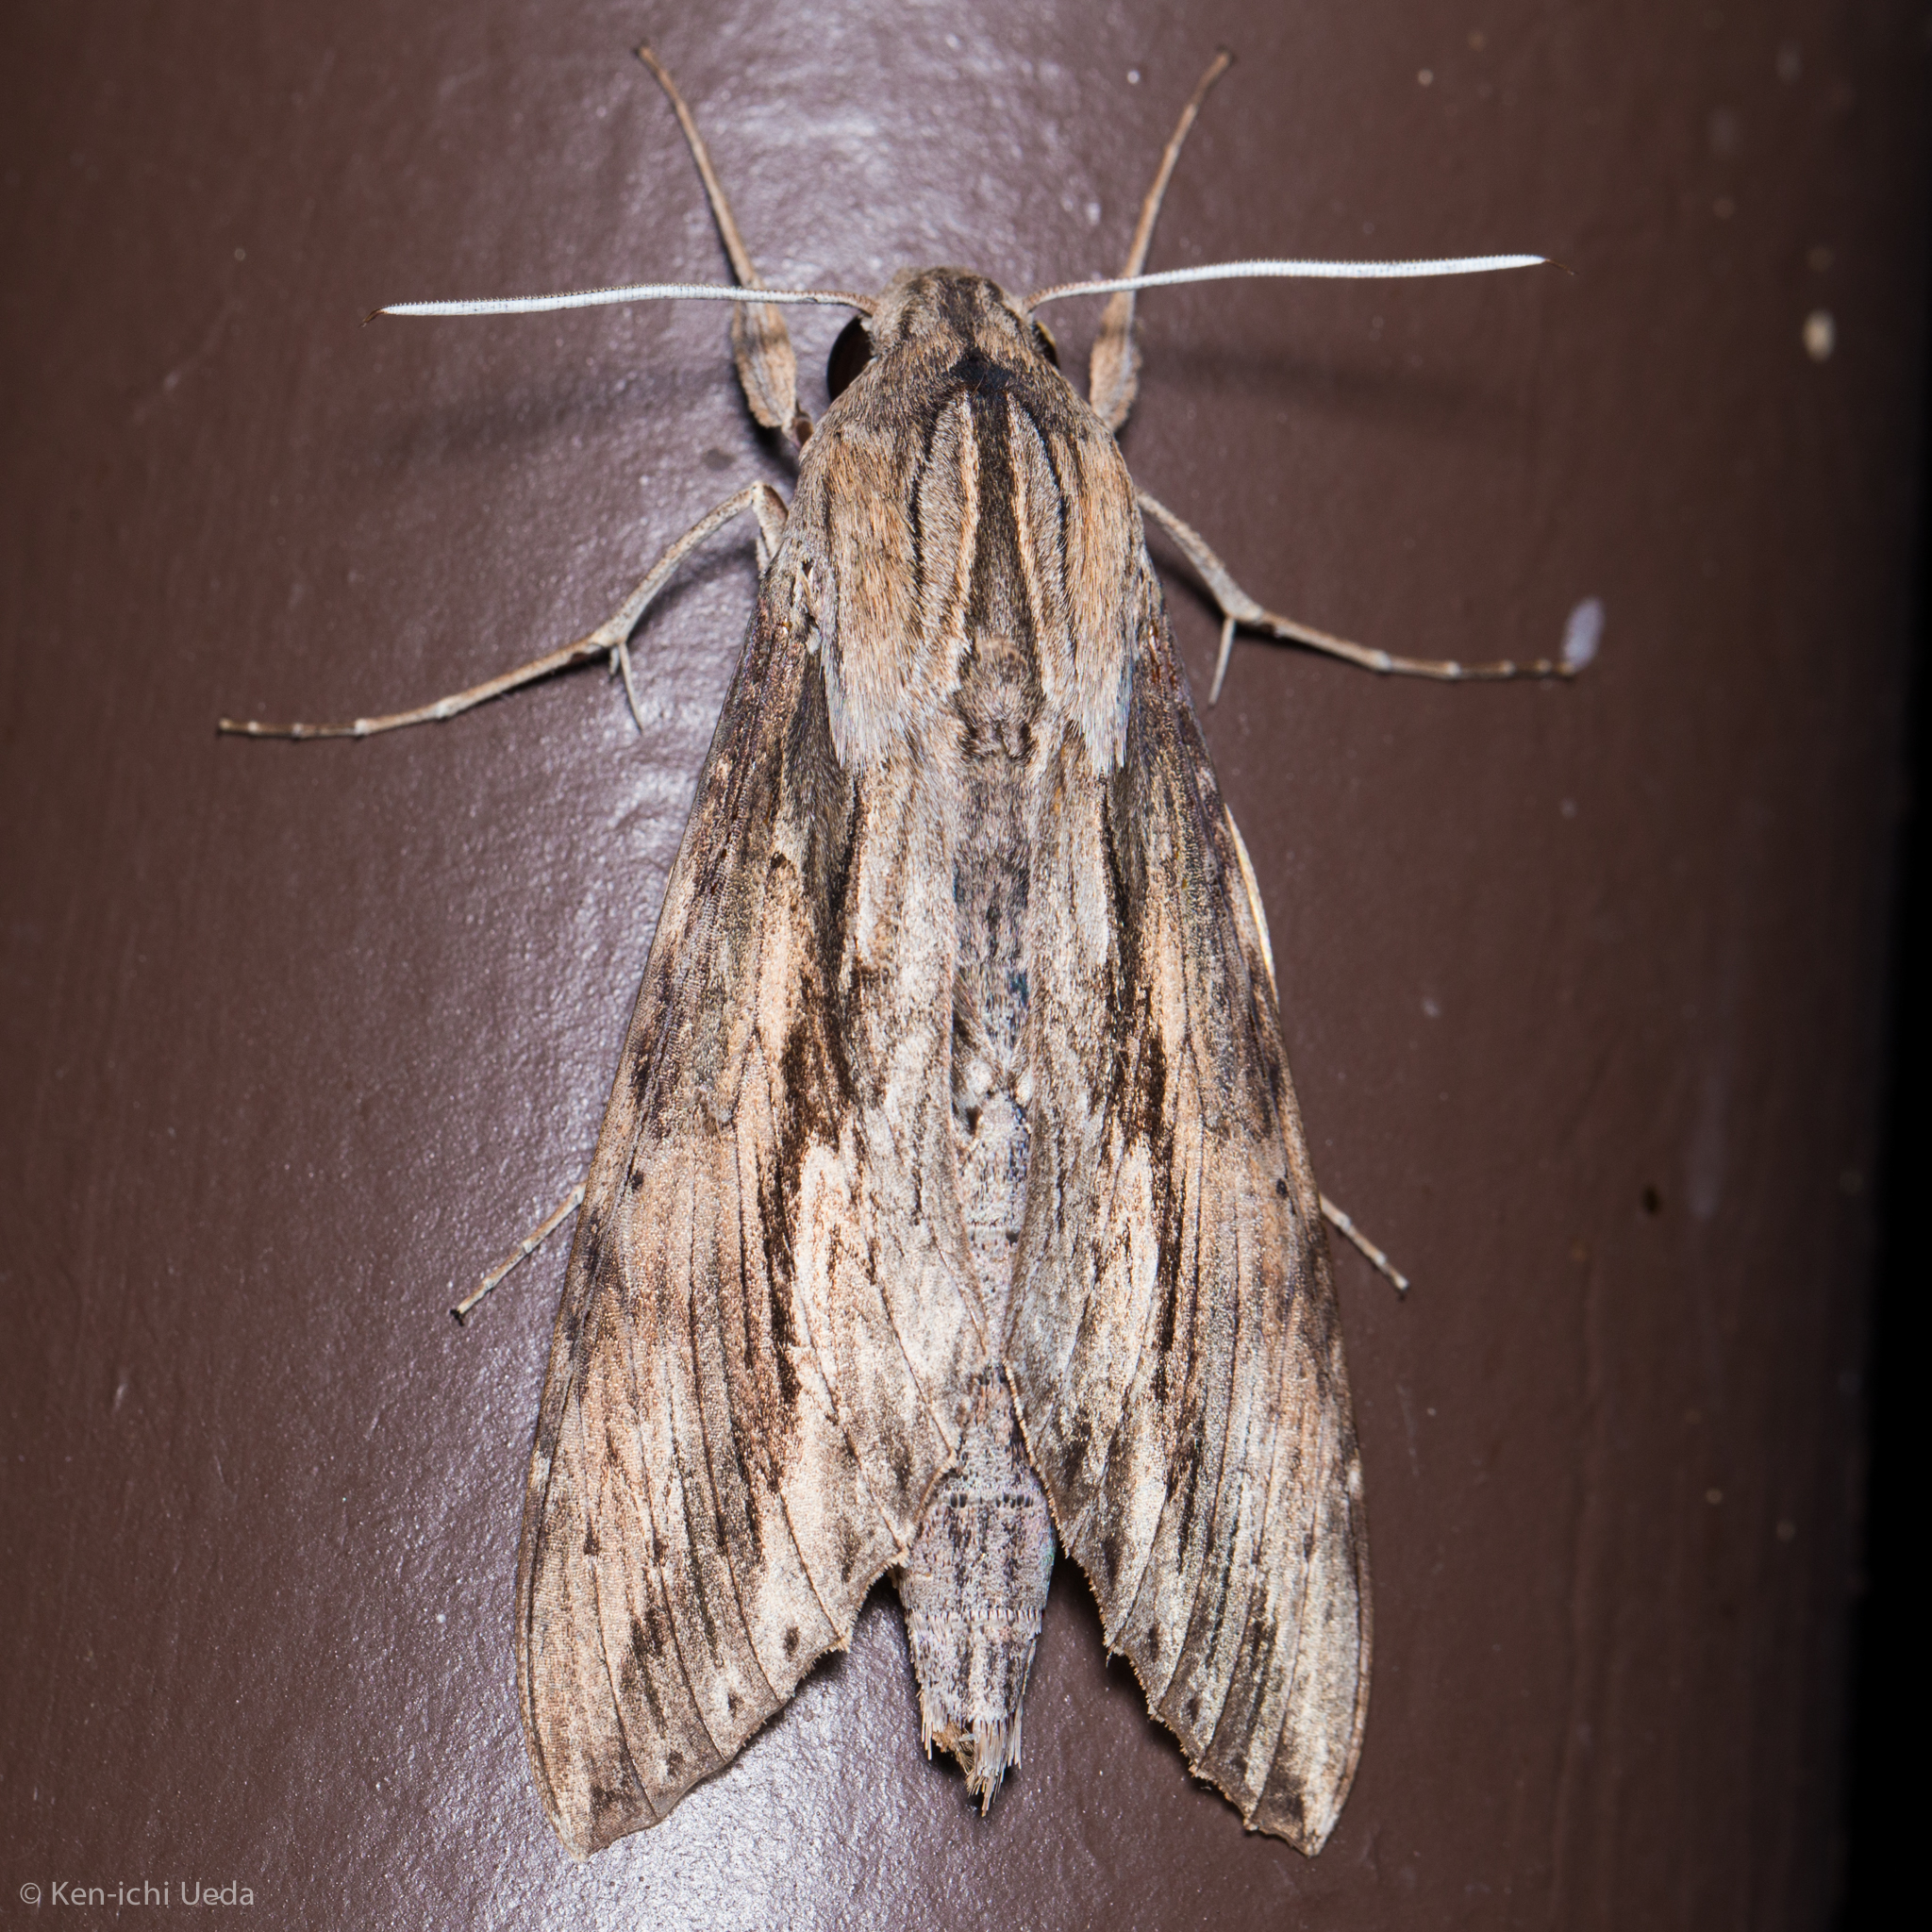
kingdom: Animalia
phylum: Arthropoda
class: Insecta
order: Lepidoptera
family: Sphingidae
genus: Erinnyis
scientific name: Erinnyis ello
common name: Ello sphinx
